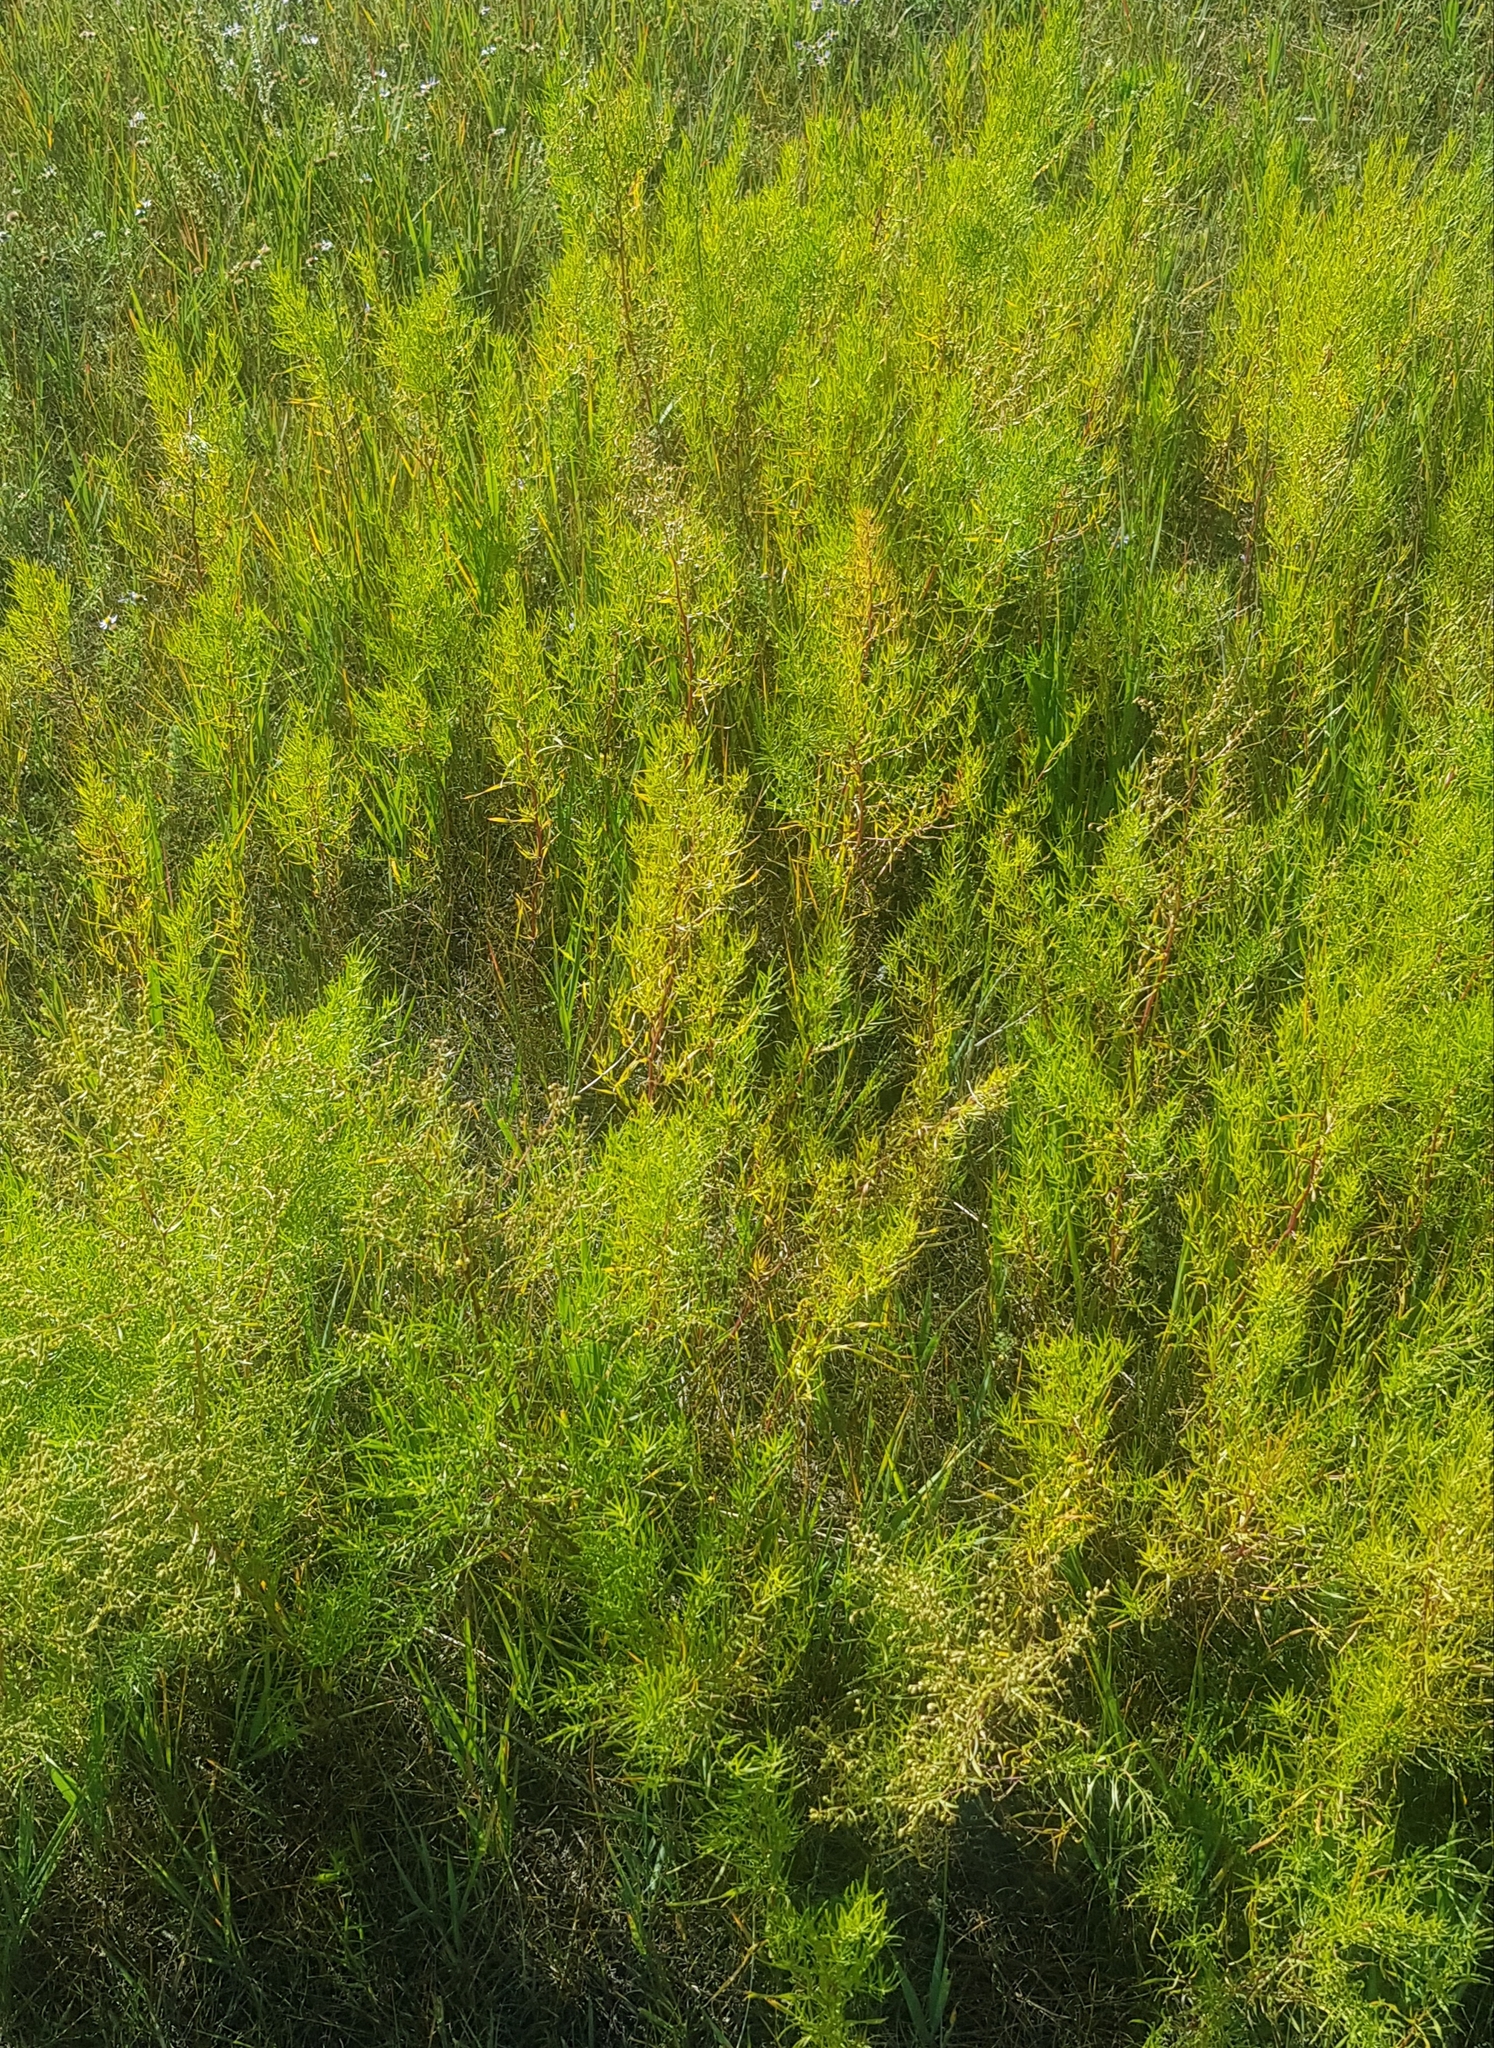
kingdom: Plantae
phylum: Tracheophyta
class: Magnoliopsida
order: Asterales
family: Asteraceae
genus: Artemisia
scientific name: Artemisia dracunculus
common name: Tarragon
